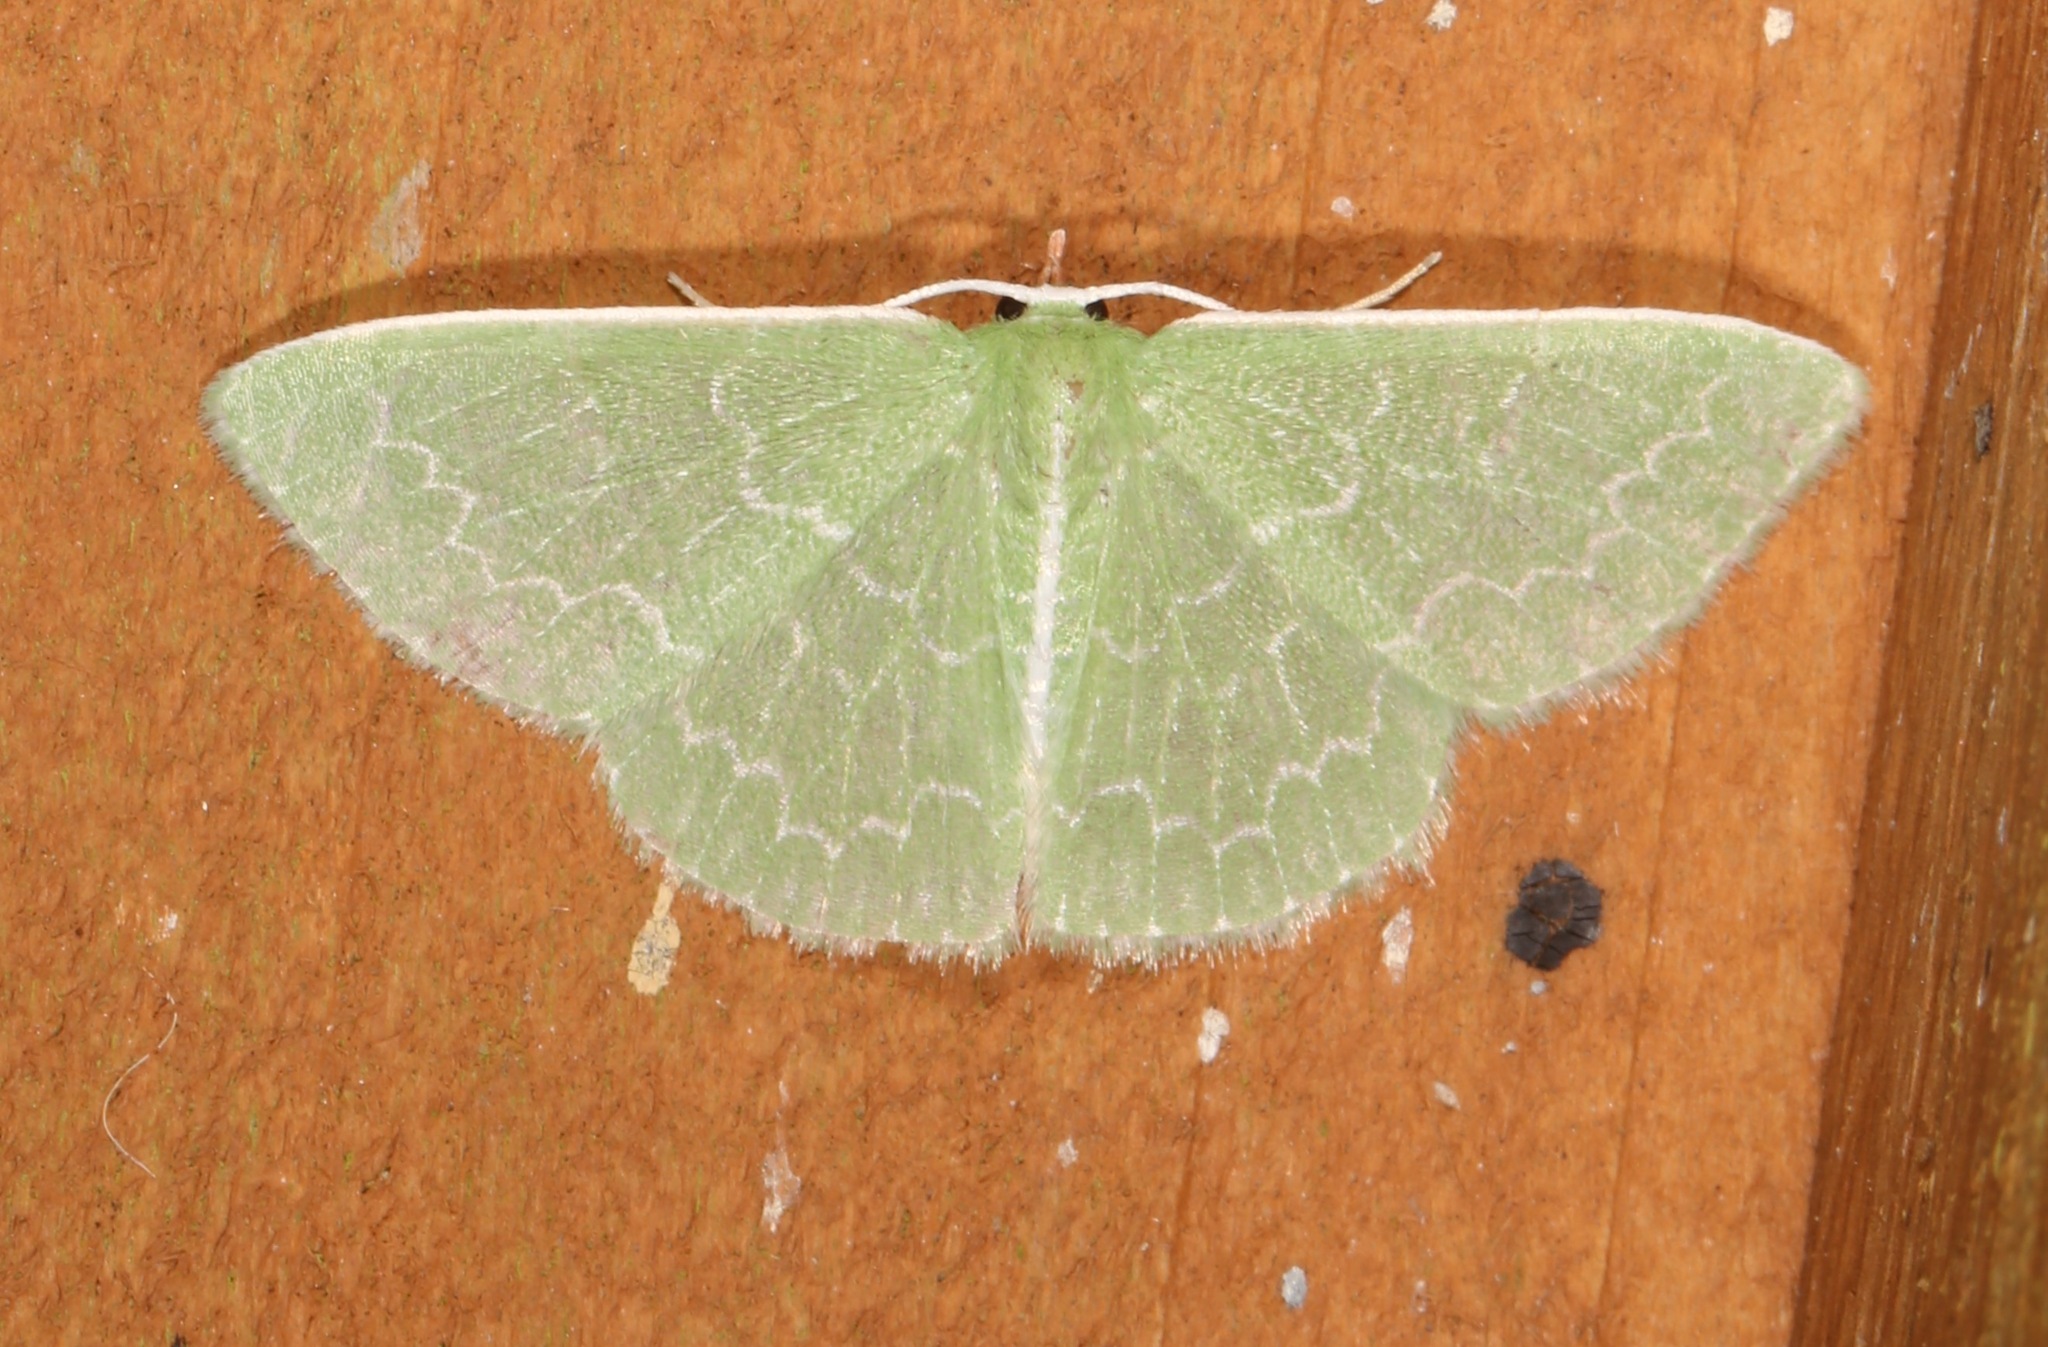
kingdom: Animalia
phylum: Arthropoda
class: Insecta
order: Lepidoptera
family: Geometridae
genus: Synchlora
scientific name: Synchlora frondaria
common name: Southern emerald
